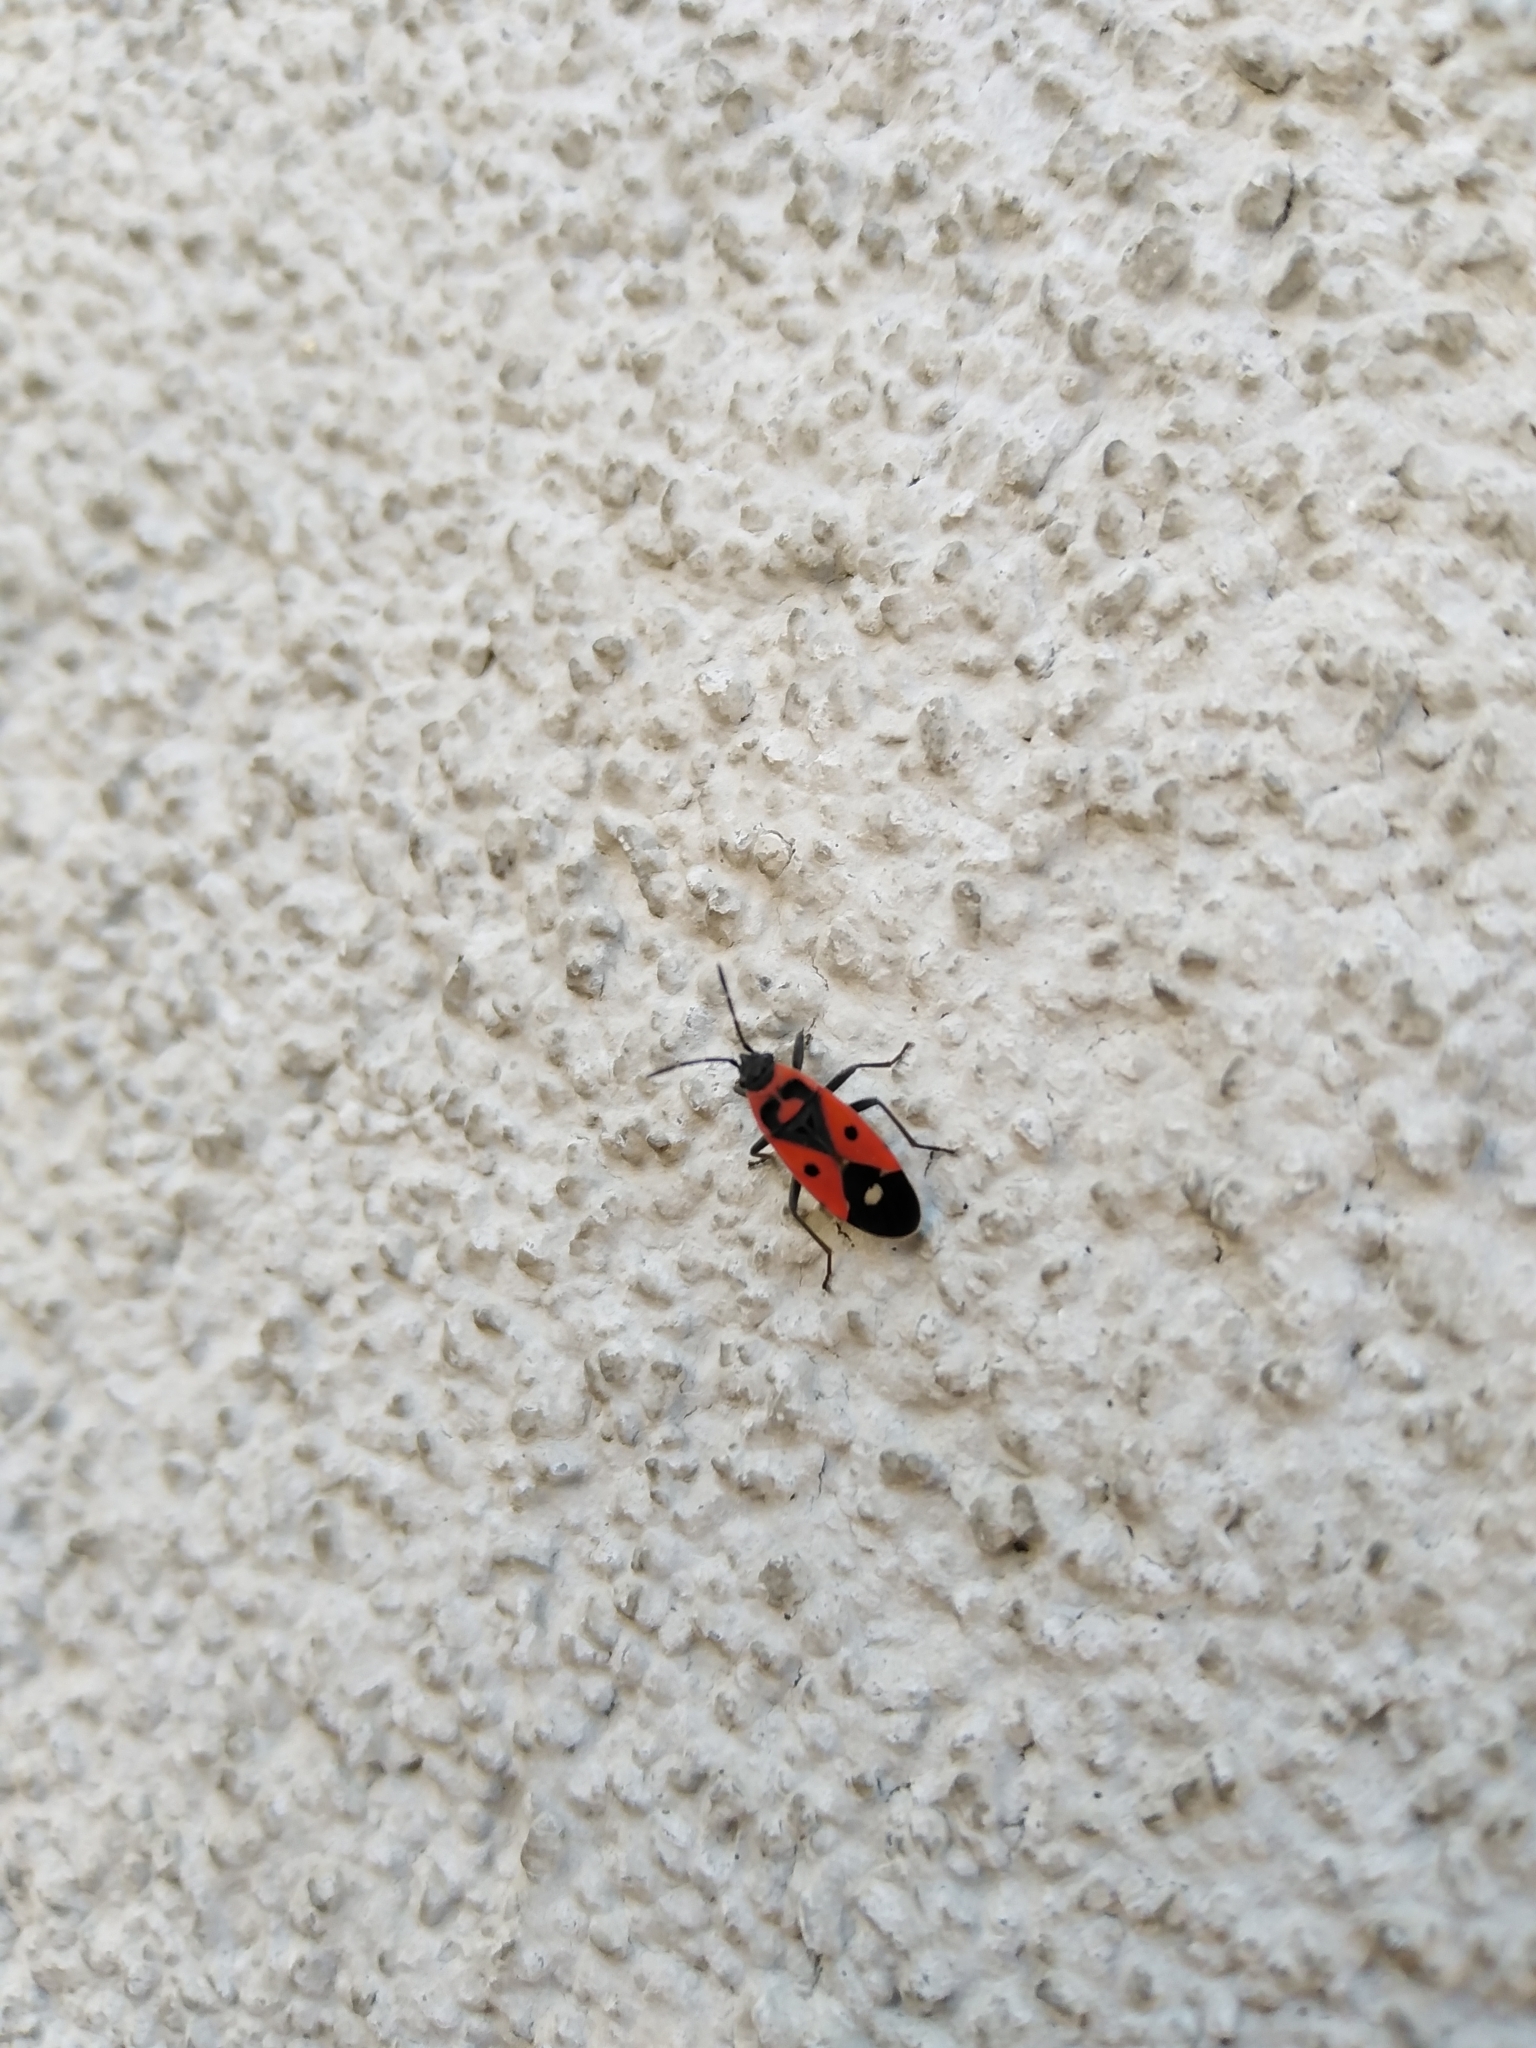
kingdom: Animalia
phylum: Arthropoda
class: Insecta
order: Hemiptera
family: Lygaeidae
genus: Melanocoryphus
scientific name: Melanocoryphus albomaculatus
